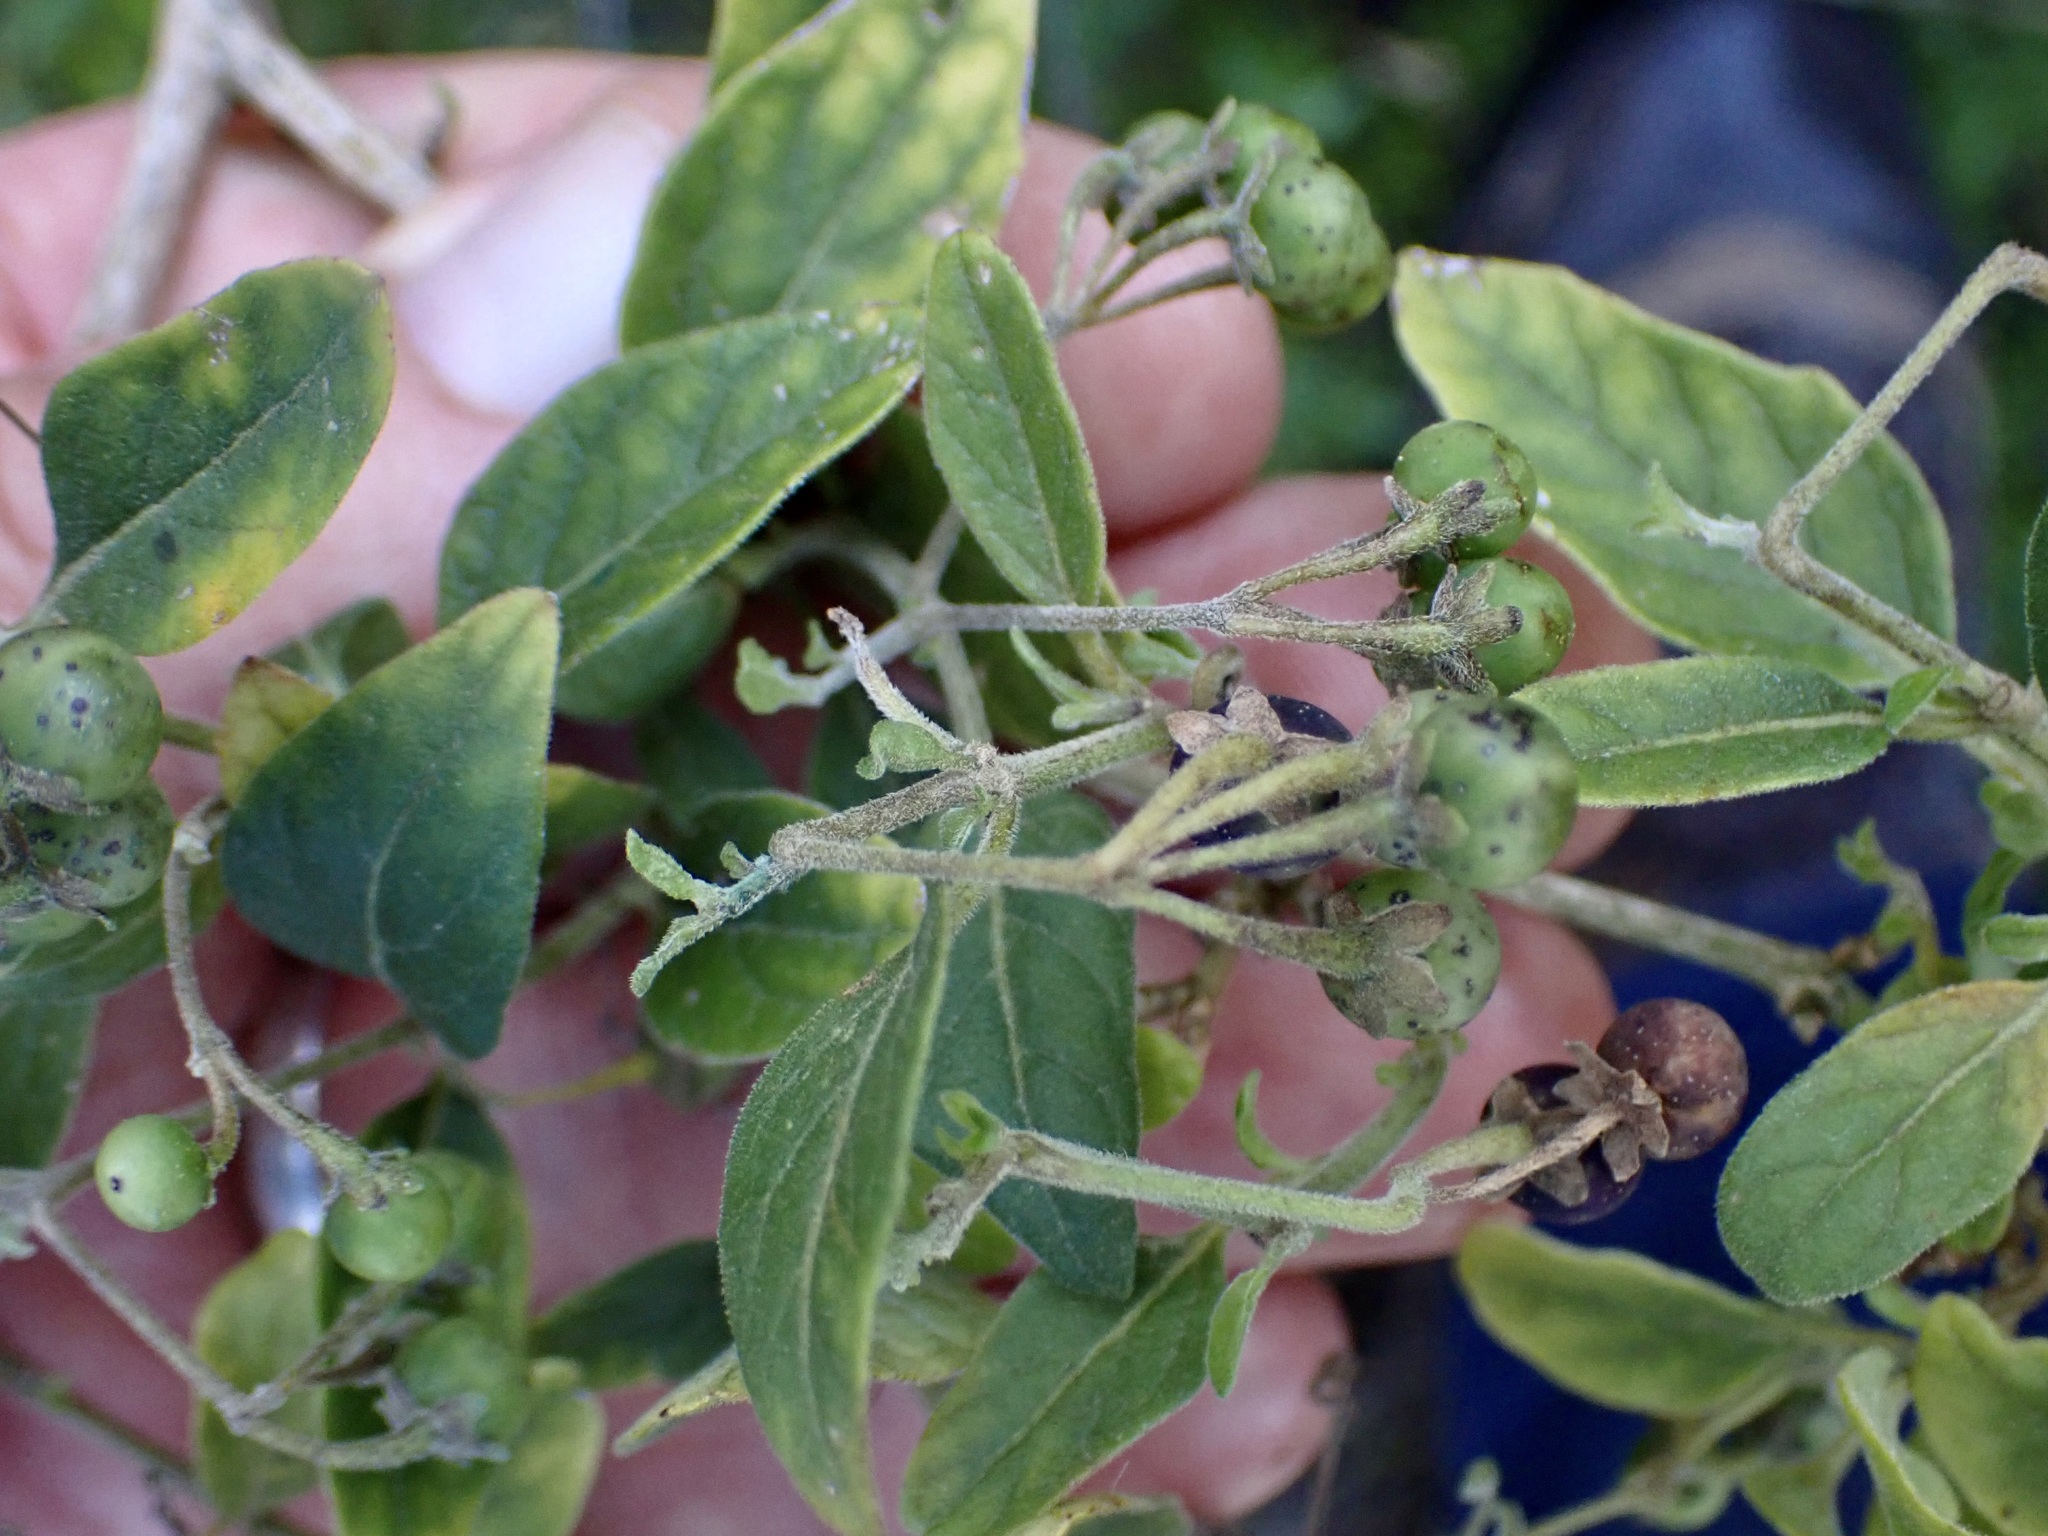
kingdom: Plantae
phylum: Tracheophyta
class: Magnoliopsida
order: Solanales
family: Solanaceae
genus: Solanum
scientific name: Solanum chenopodioides
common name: Tall nightshade
